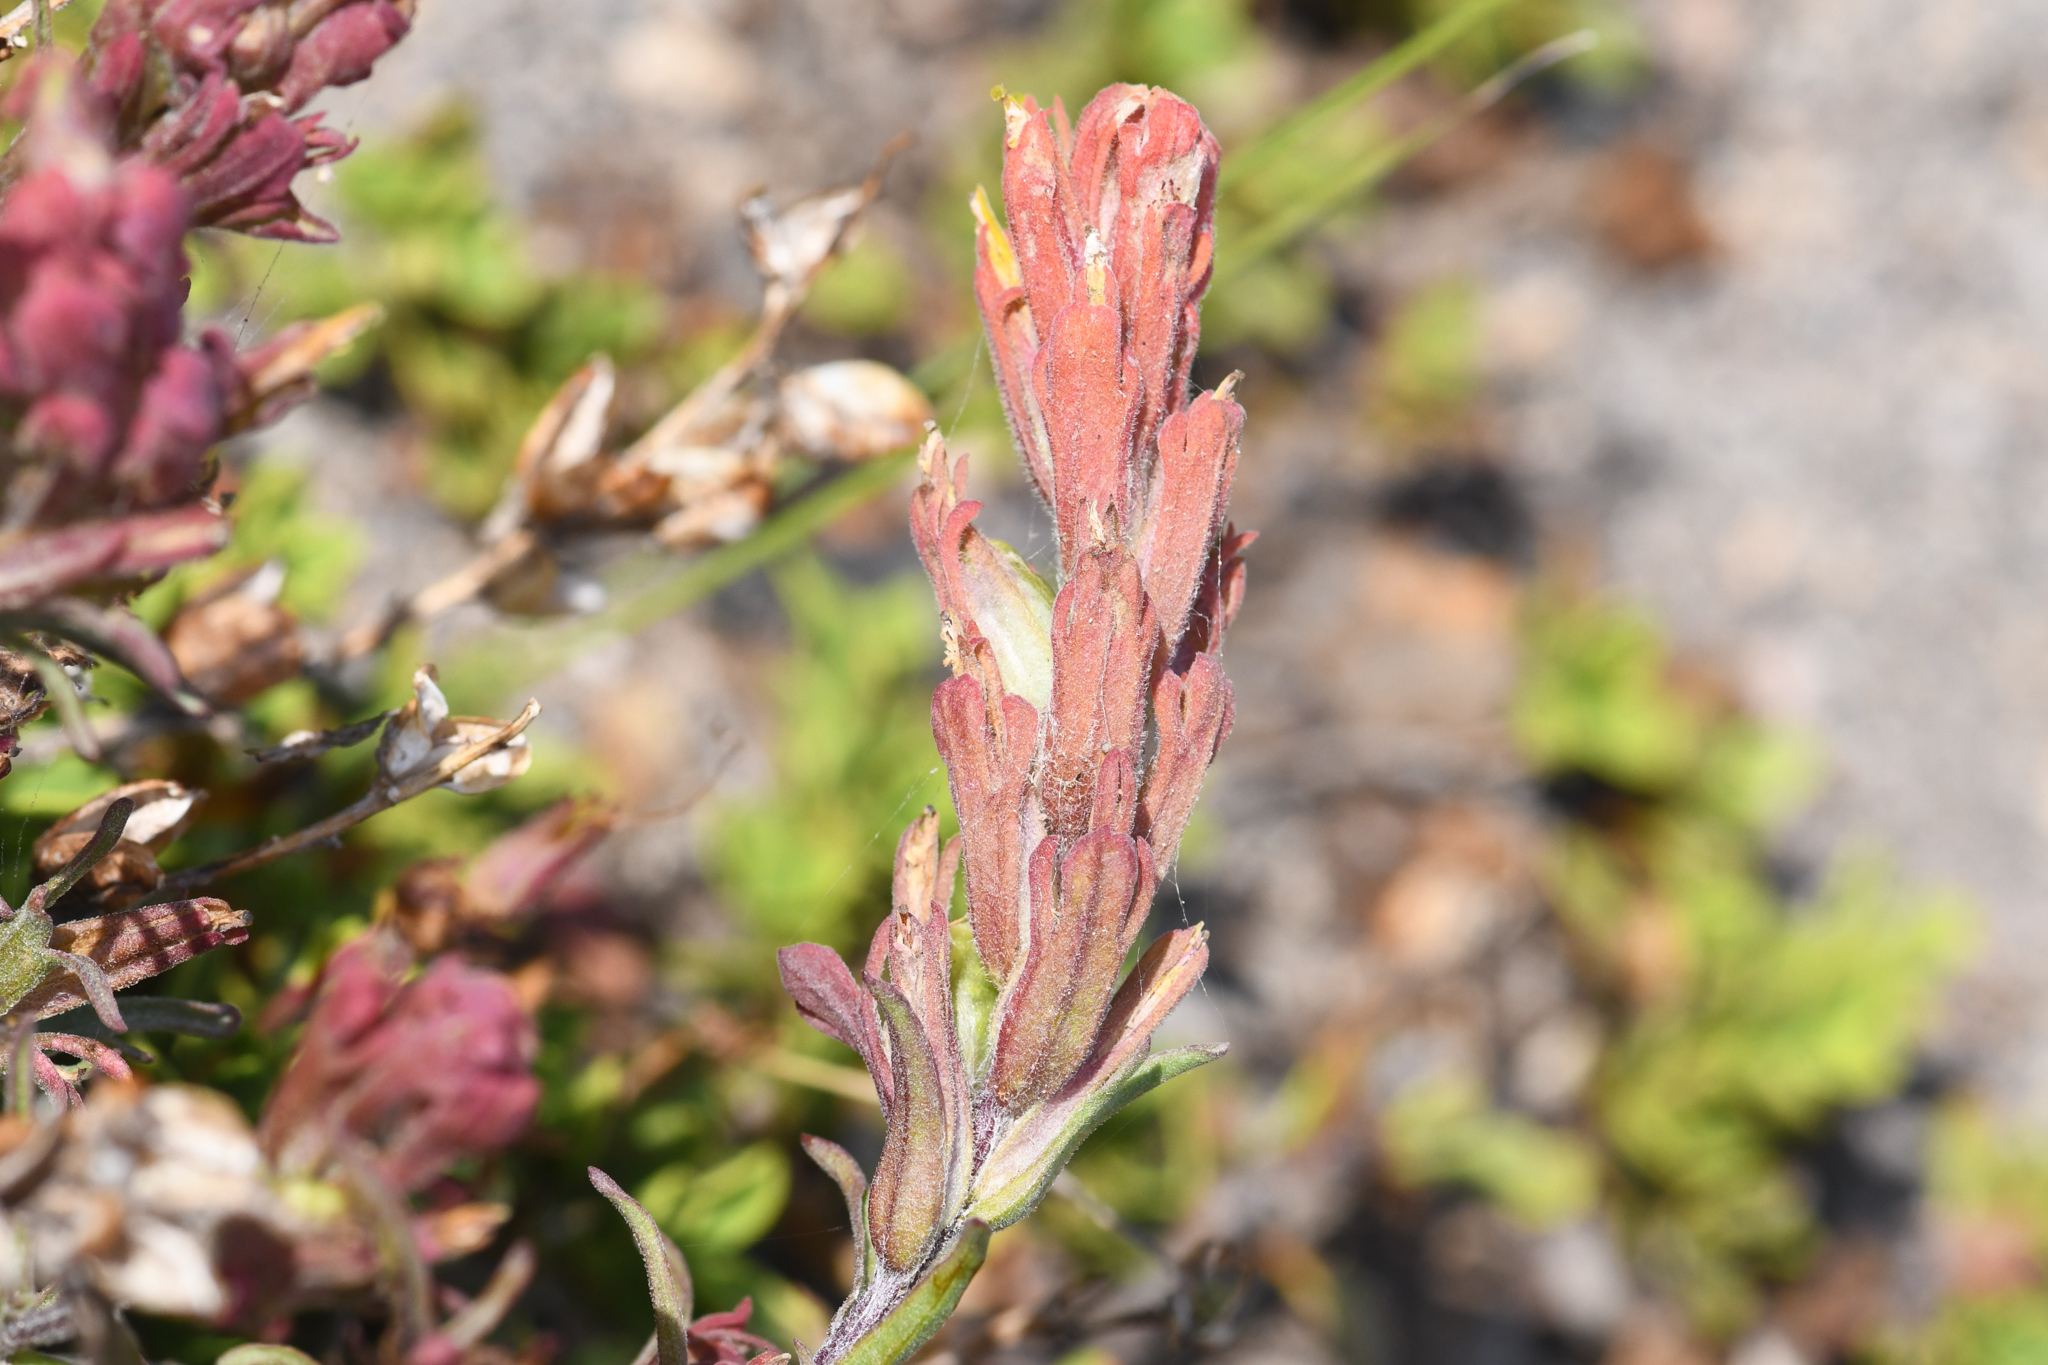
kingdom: Plantae
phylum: Tracheophyta
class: Magnoliopsida
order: Lamiales
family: Orobanchaceae
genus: Castilleja
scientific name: Castilleja arachnoidea
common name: Cobwebby indian paintbrush
